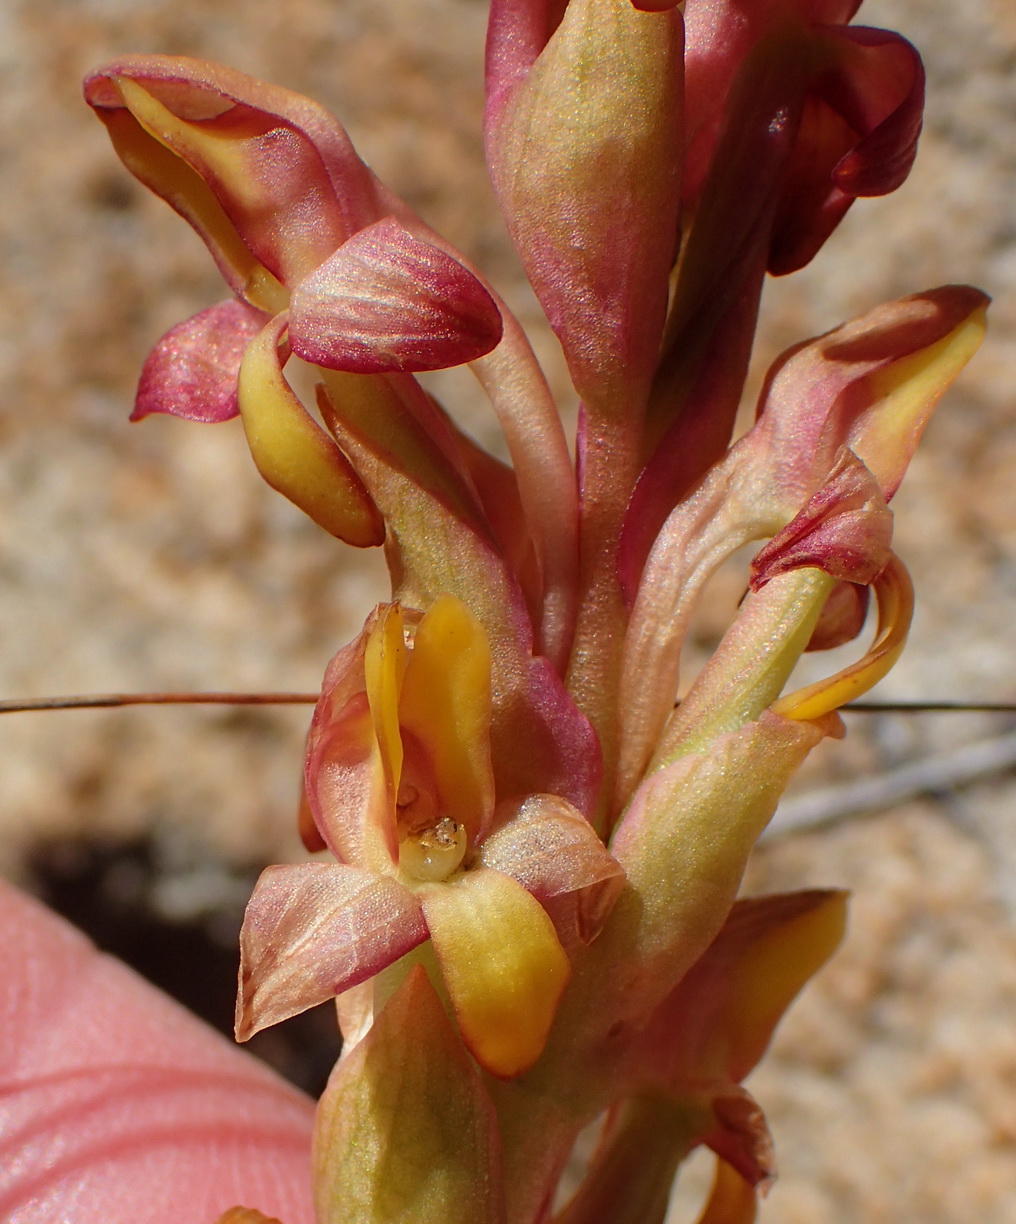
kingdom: Plantae
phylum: Tracheophyta
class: Liliopsida
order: Asparagales
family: Orchidaceae
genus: Disa
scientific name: Disa bolusiana
